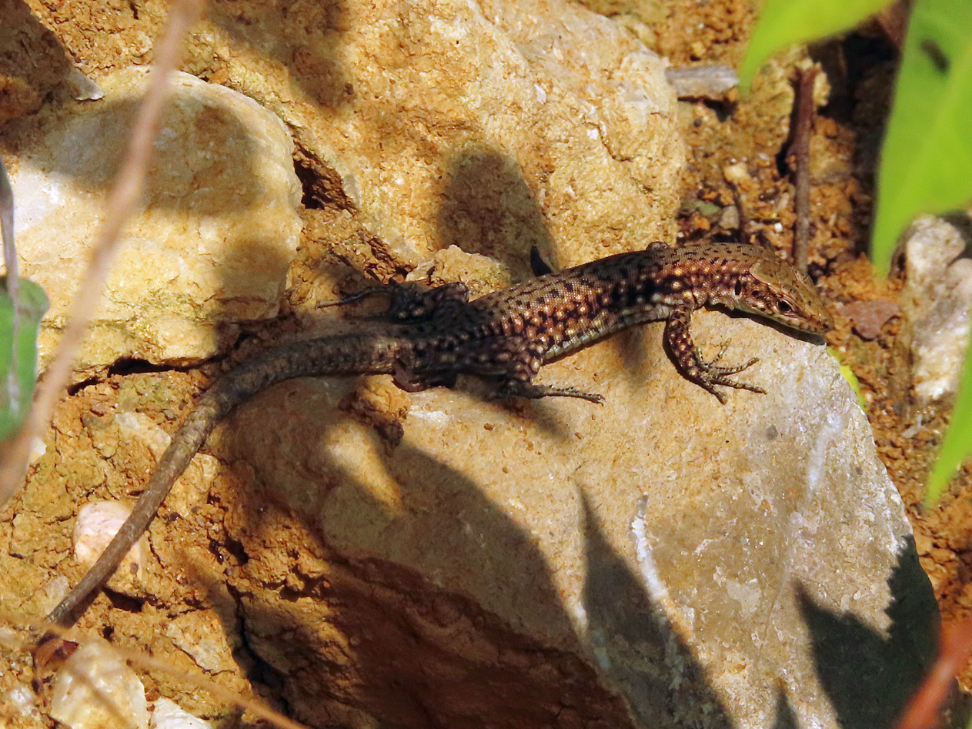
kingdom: Animalia
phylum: Chordata
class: Squamata
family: Lacertidae
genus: Darevskia
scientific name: Darevskia bithynica
